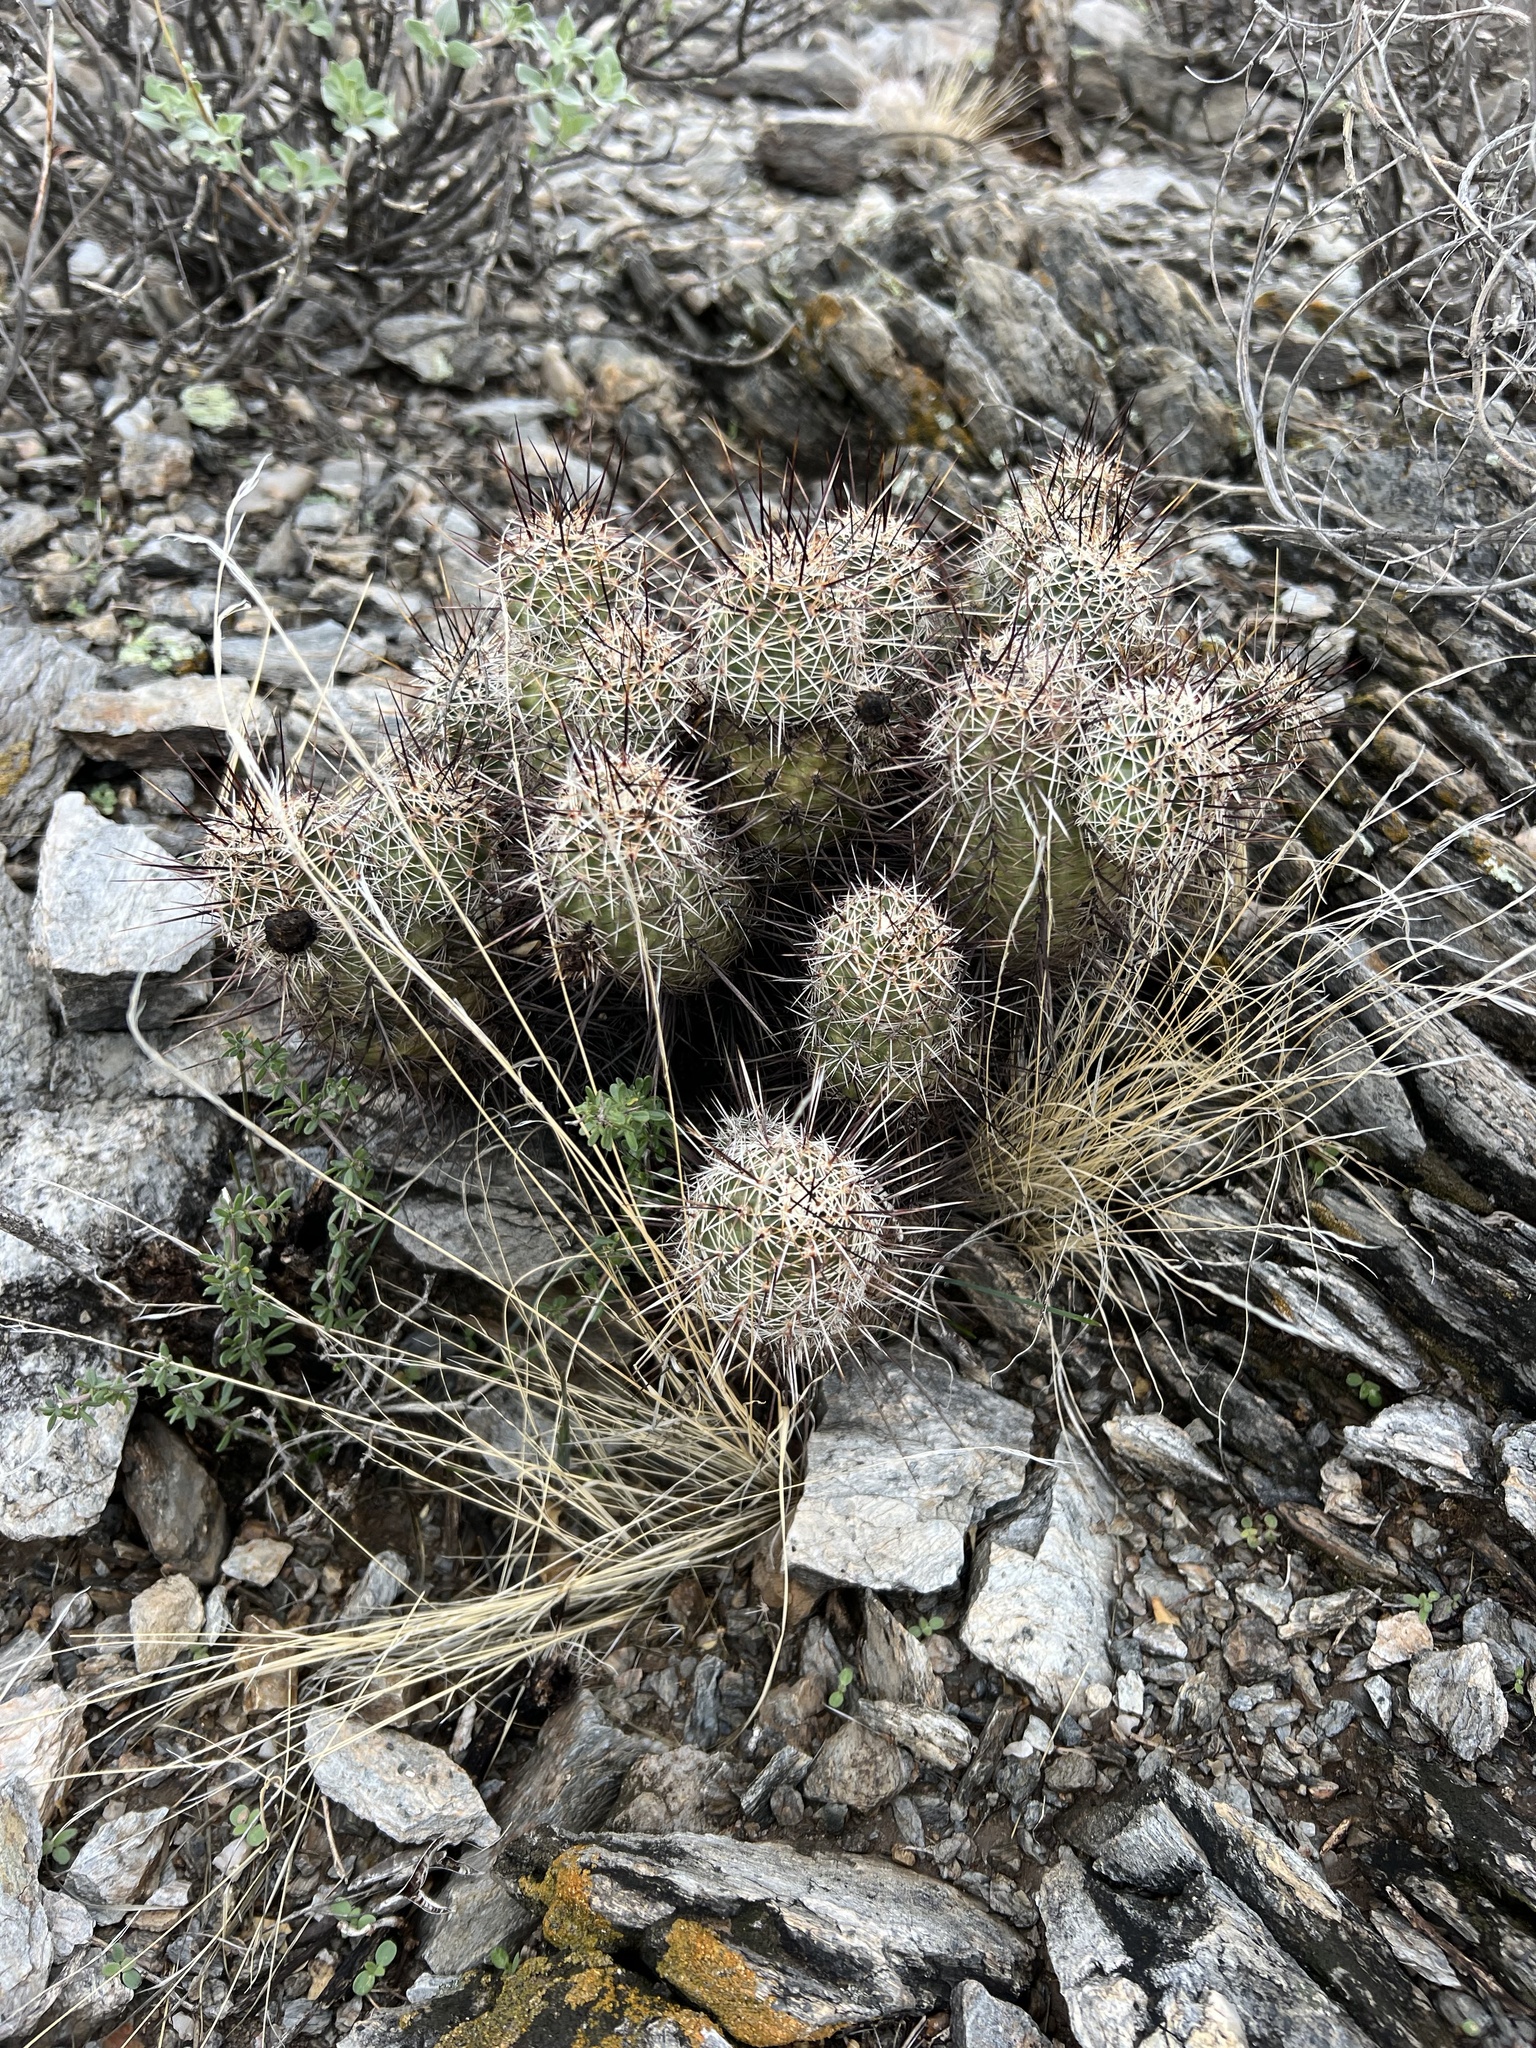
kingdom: Plantae
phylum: Tracheophyta
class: Magnoliopsida
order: Caryophyllales
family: Cactaceae
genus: Echinocereus
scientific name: Echinocereus fasciculatus
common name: Bundle hedgehog
